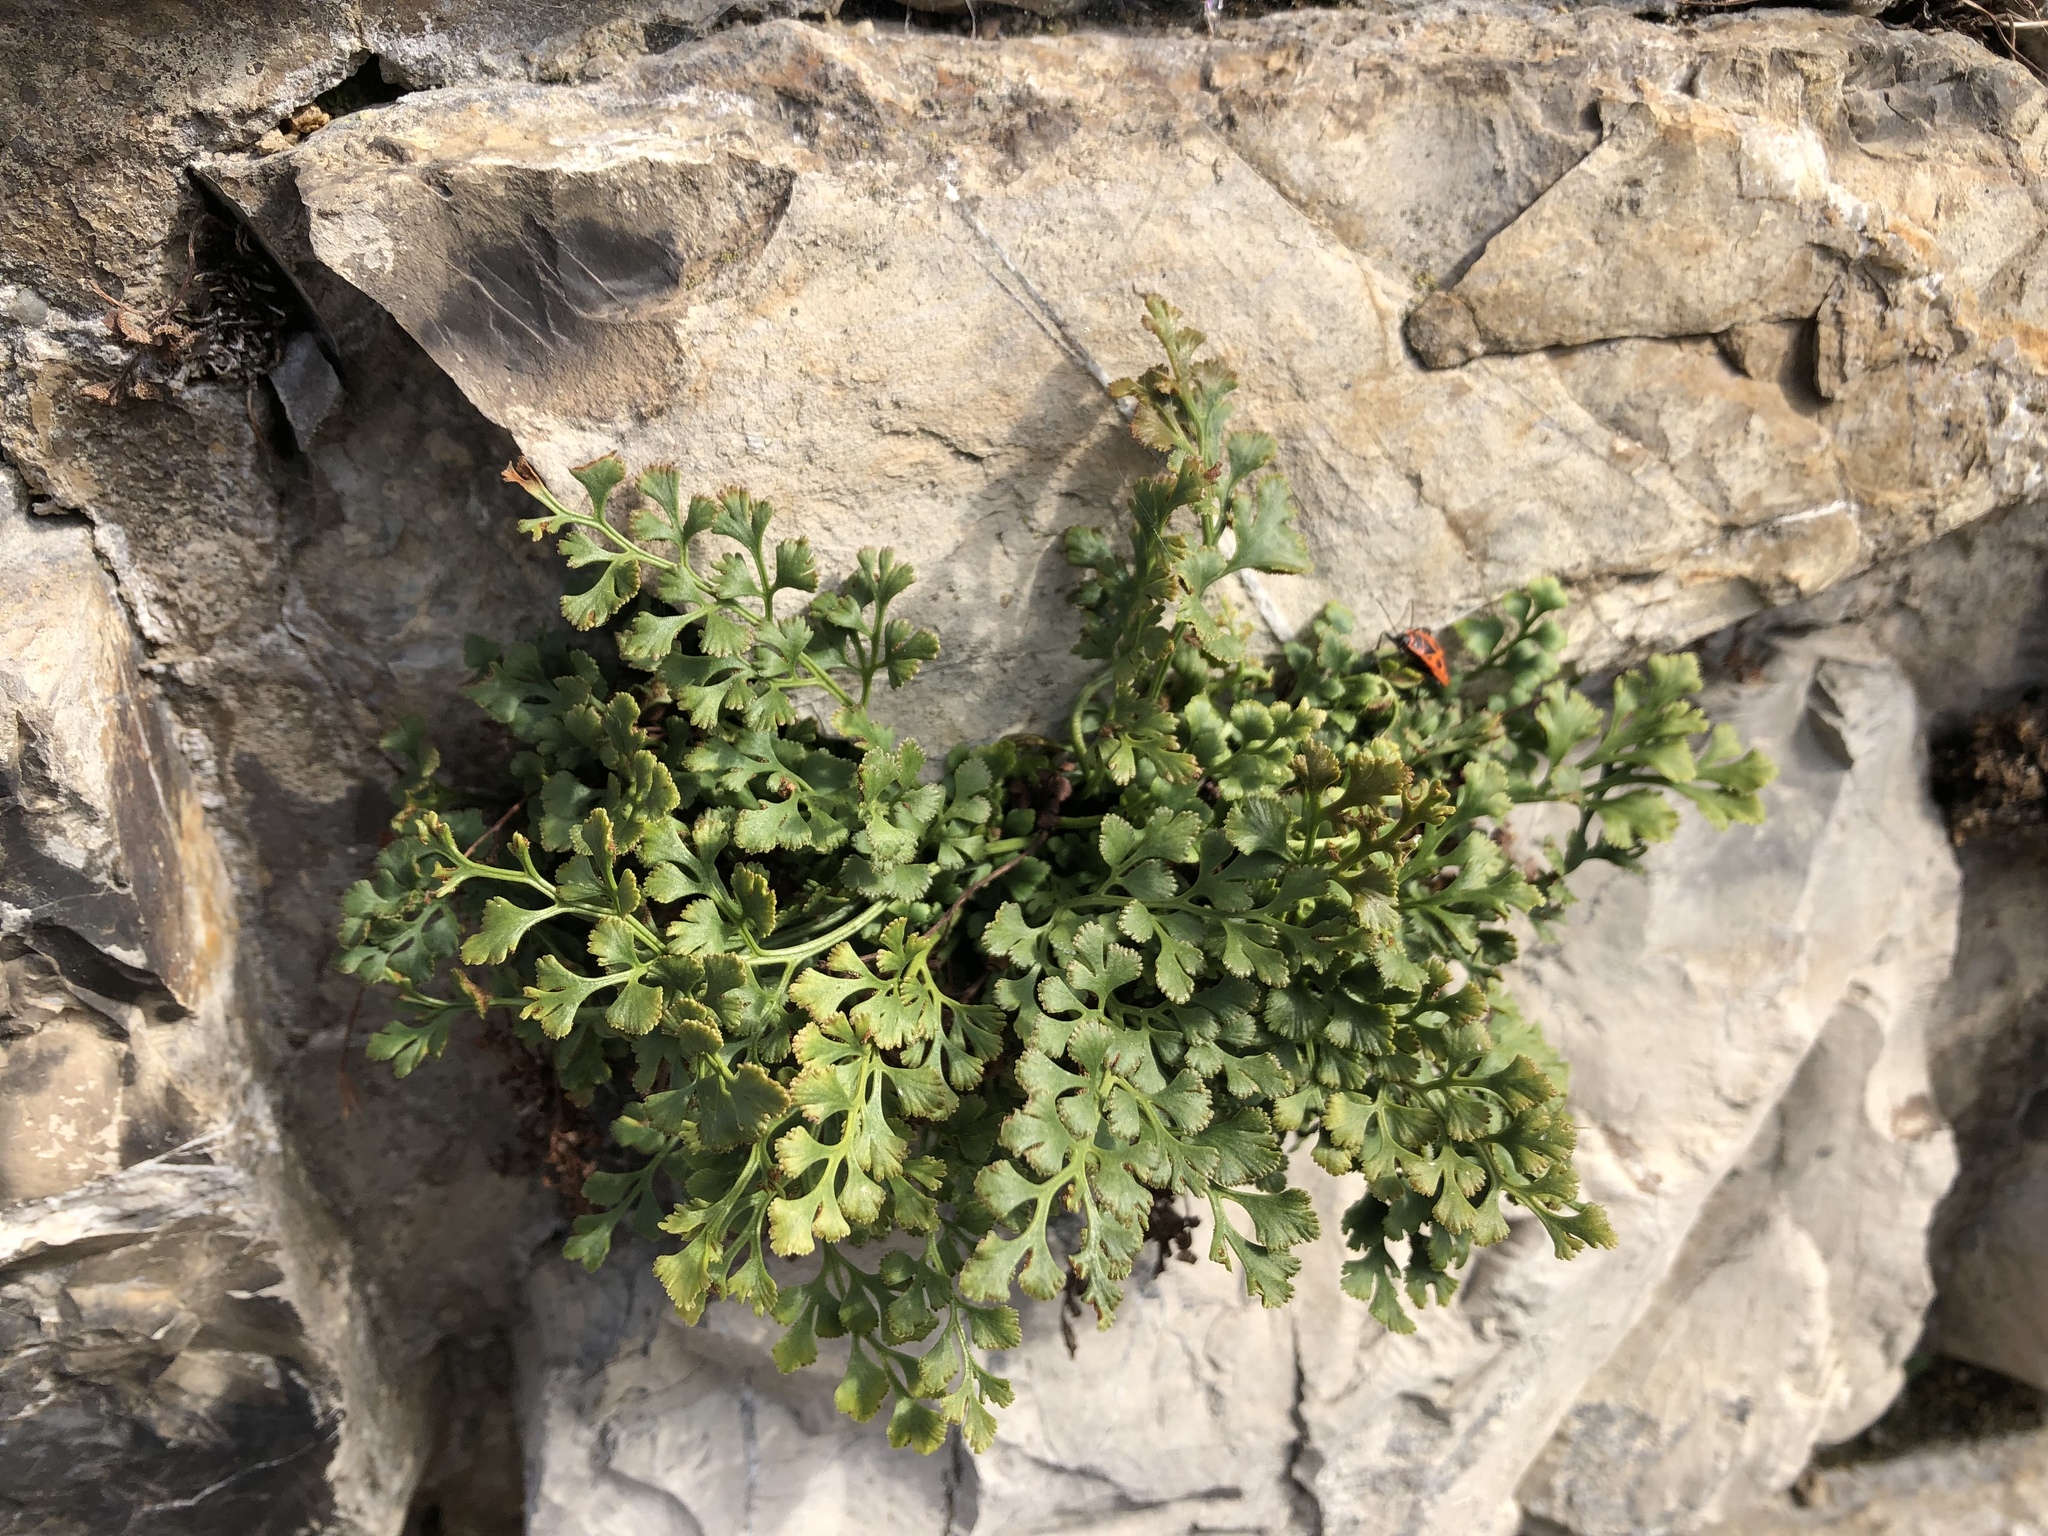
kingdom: Plantae
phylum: Tracheophyta
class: Polypodiopsida
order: Polypodiales
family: Aspleniaceae
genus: Asplenium
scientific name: Asplenium ruta-muraria
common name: Wall-rue
